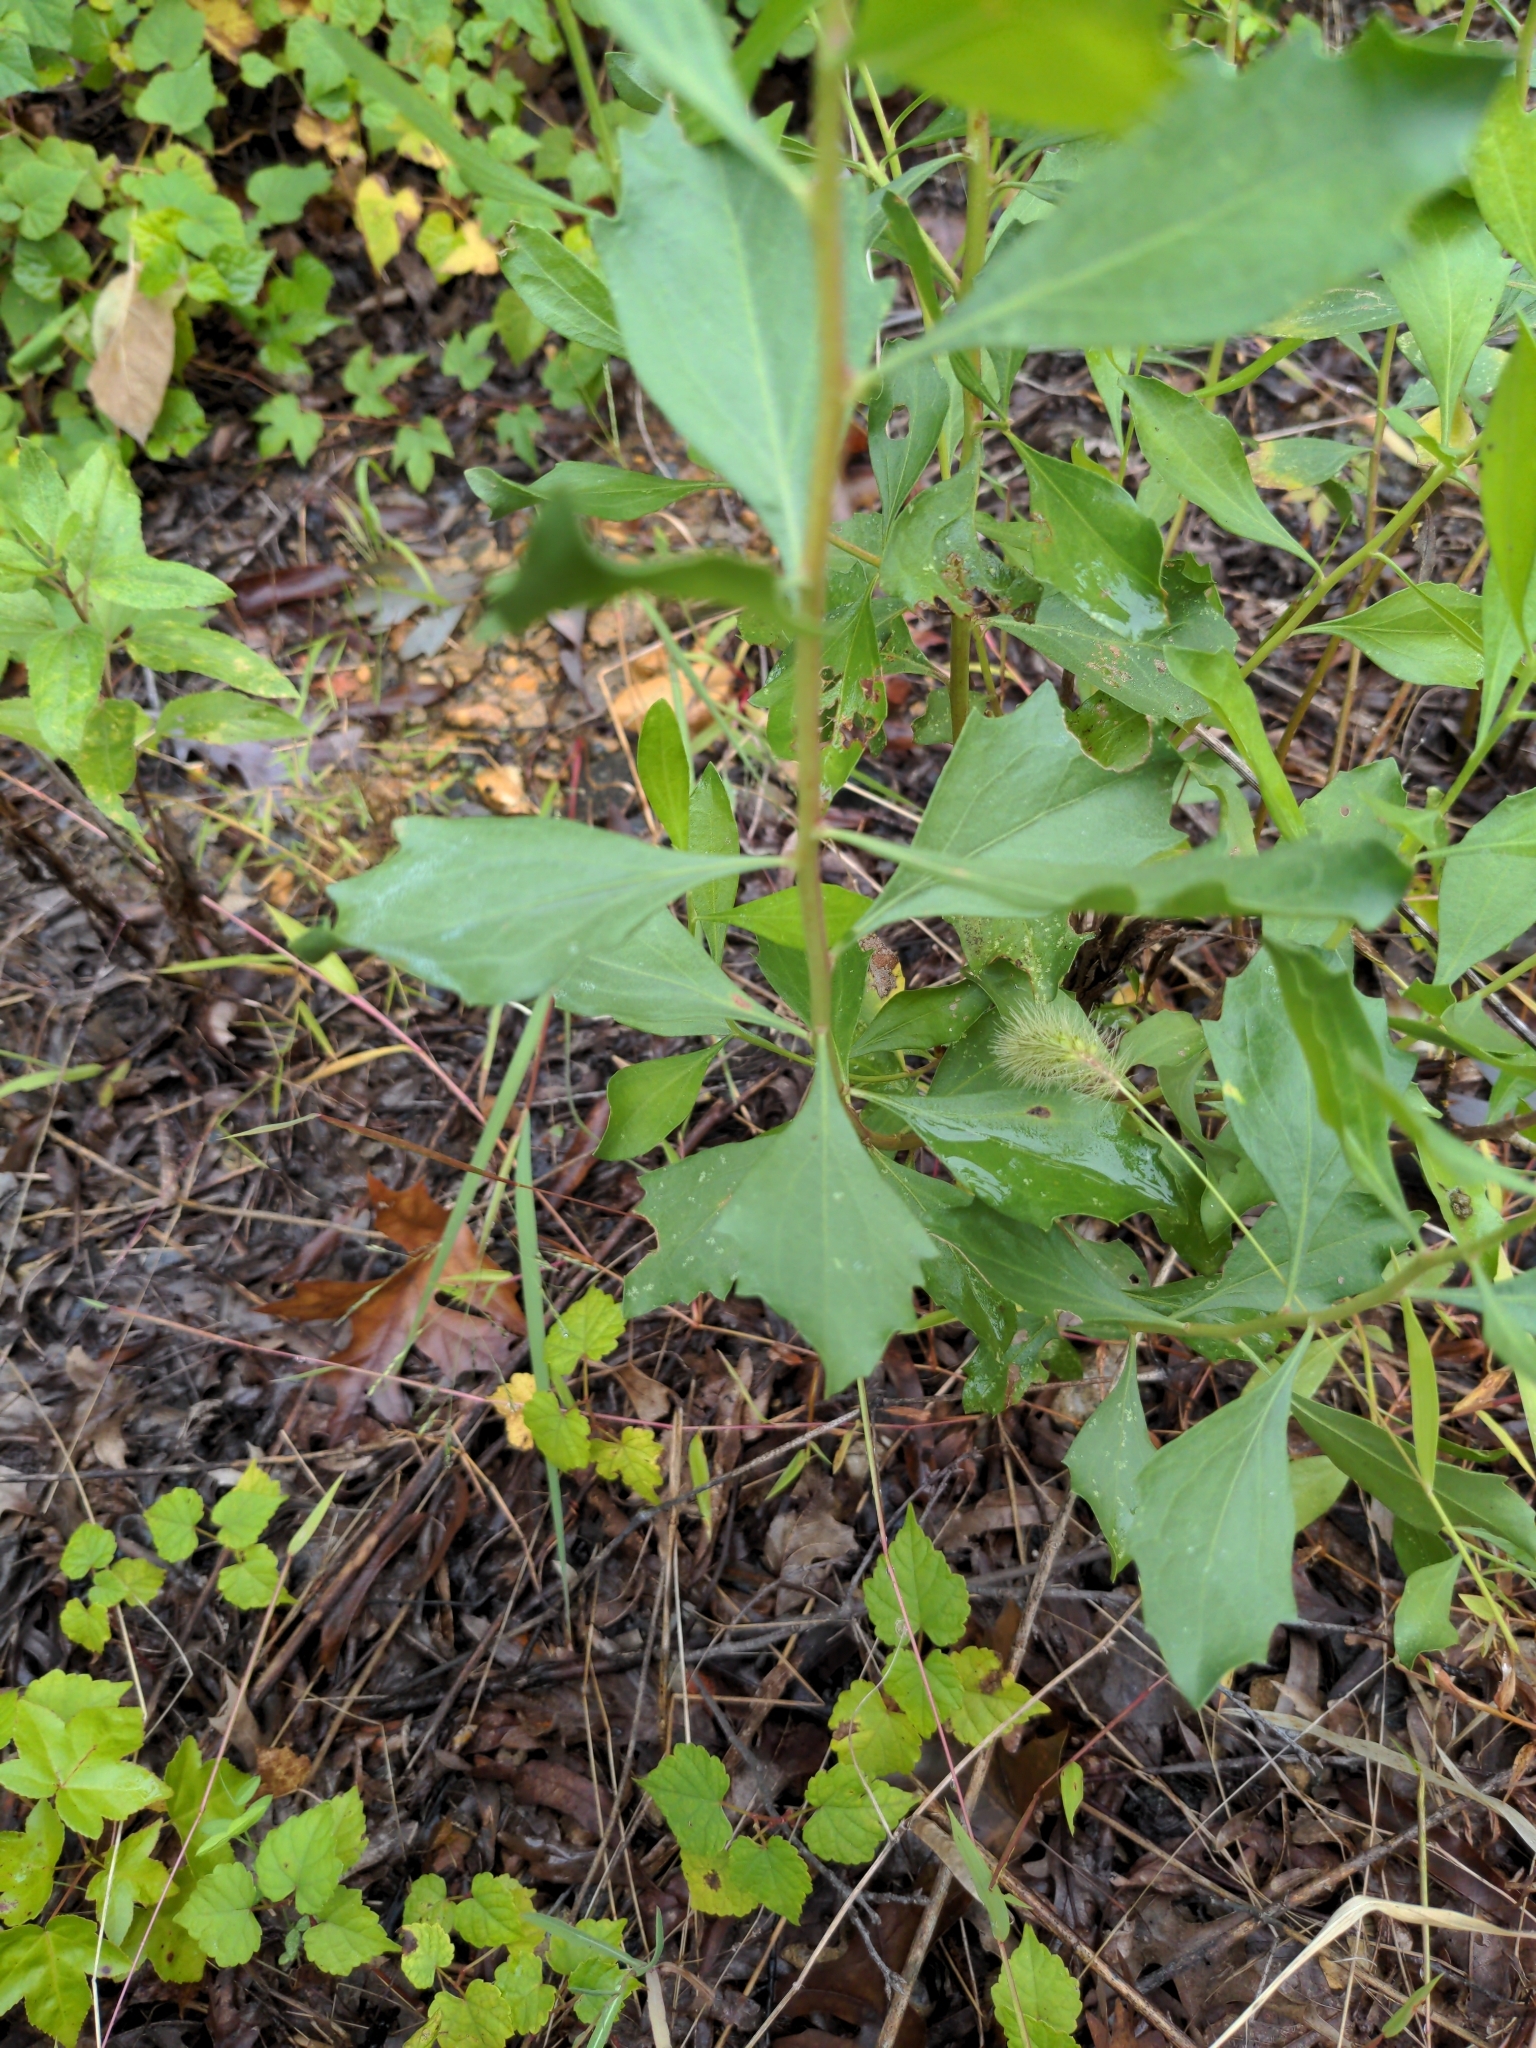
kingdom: Plantae
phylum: Tracheophyta
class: Magnoliopsida
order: Asterales
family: Asteraceae
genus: Baccharis
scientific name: Baccharis halimifolia
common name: Eastern baccharis
